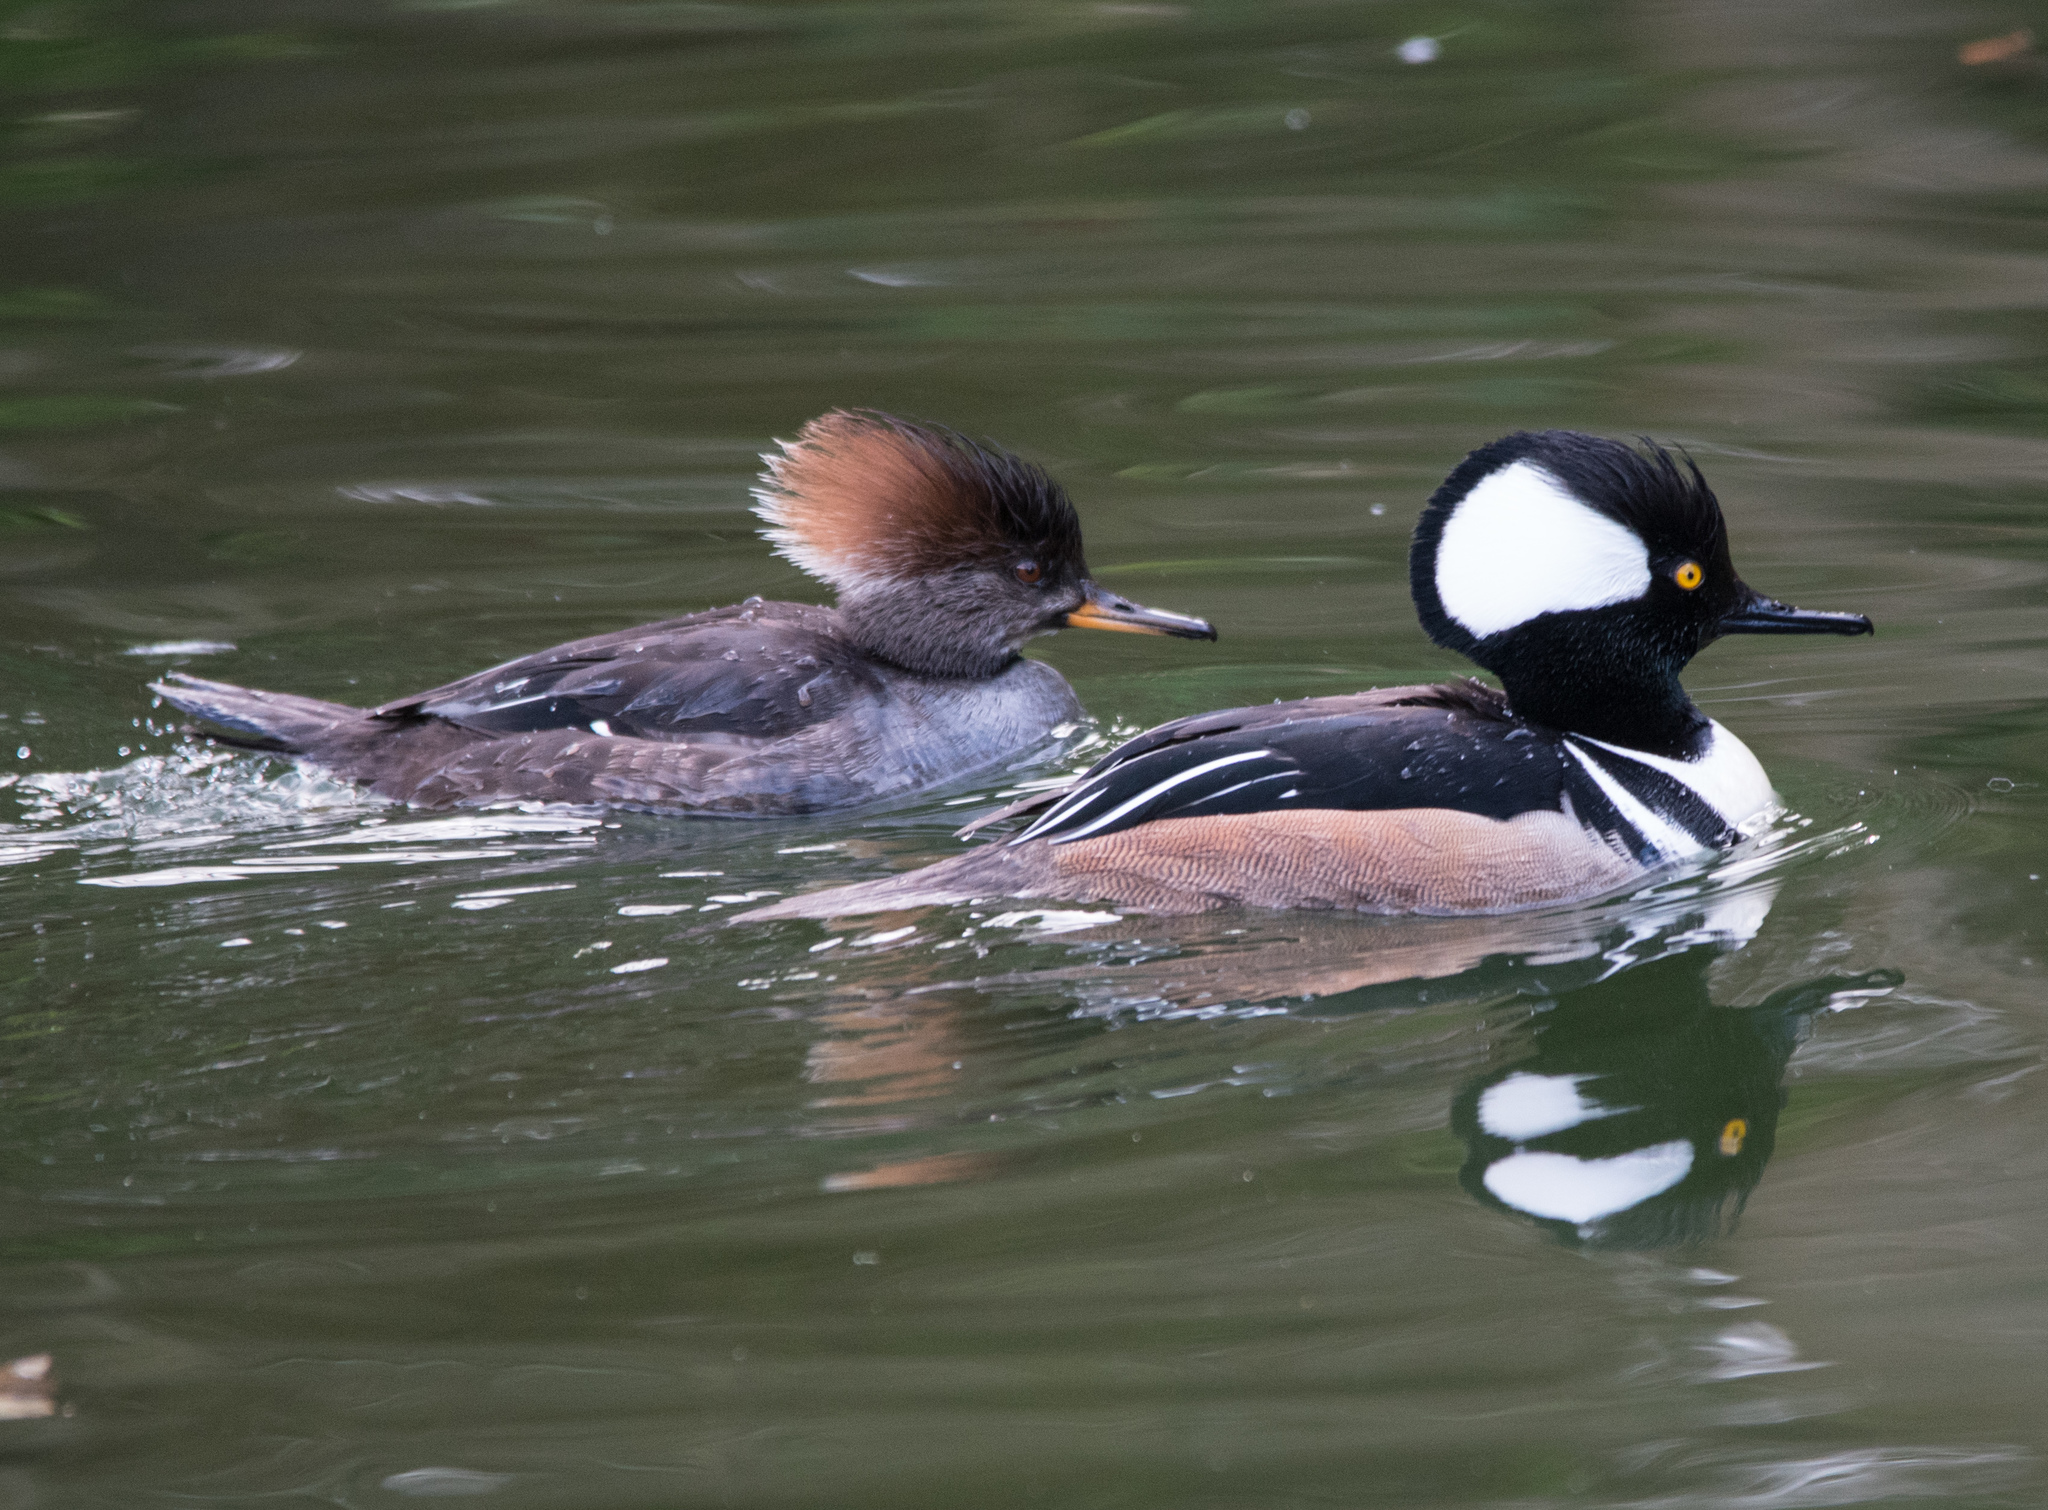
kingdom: Animalia
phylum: Chordata
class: Aves
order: Anseriformes
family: Anatidae
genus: Lophodytes
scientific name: Lophodytes cucullatus
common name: Hooded merganser
